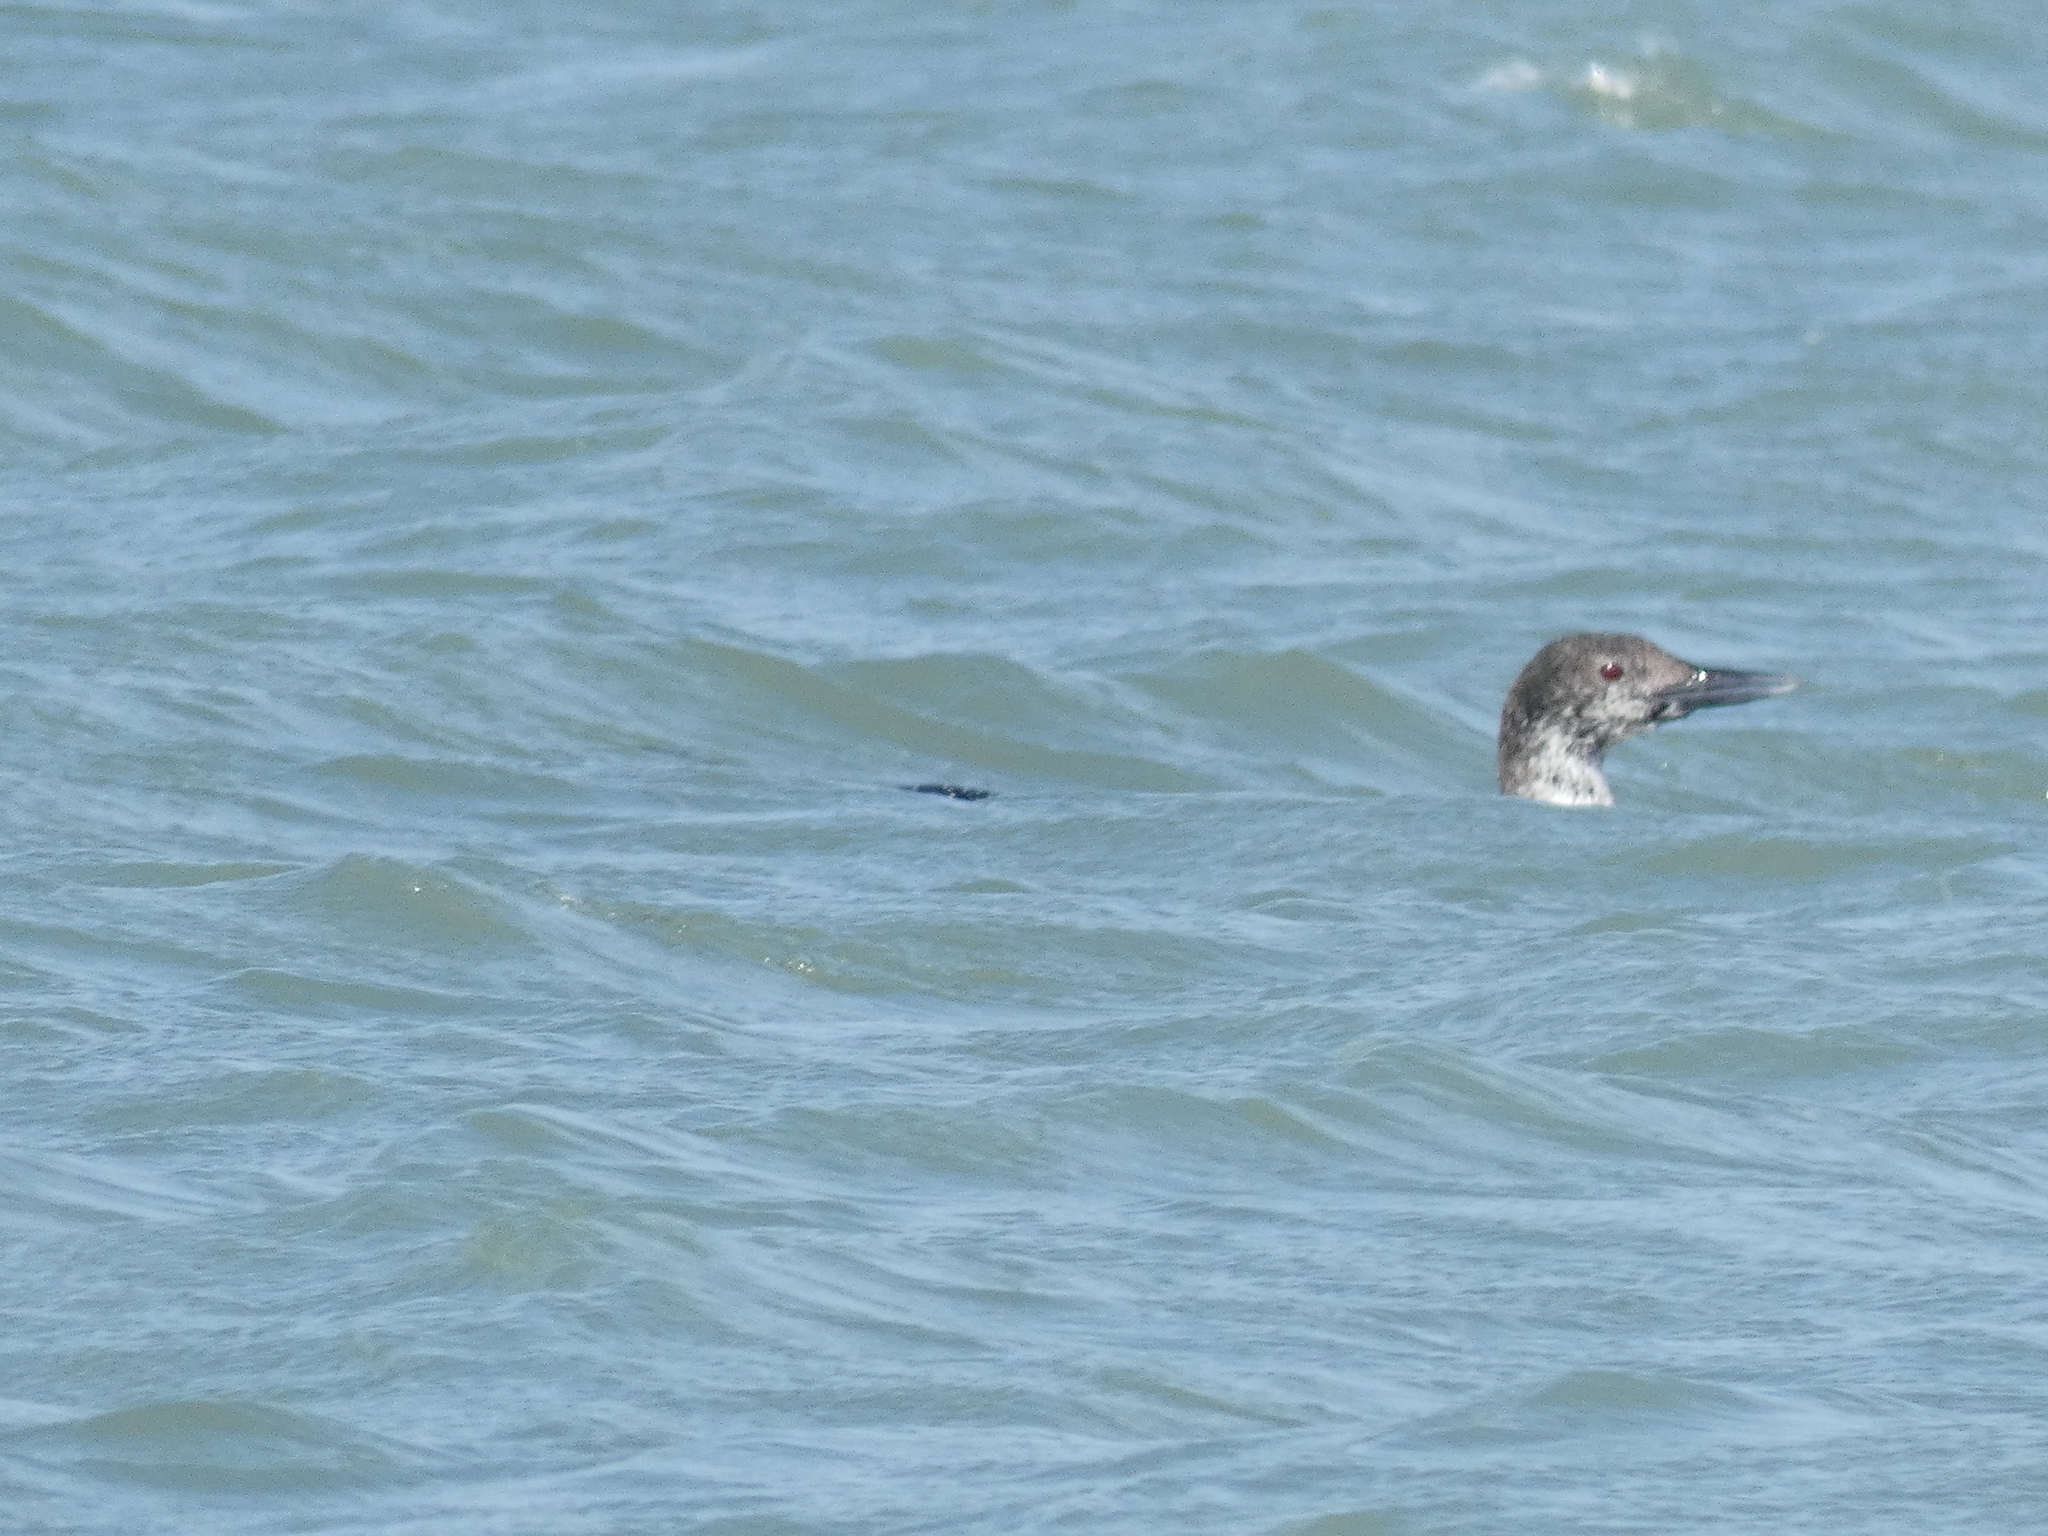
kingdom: Animalia
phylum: Chordata
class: Aves
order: Gaviiformes
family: Gaviidae
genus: Gavia
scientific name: Gavia immer
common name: Common loon
